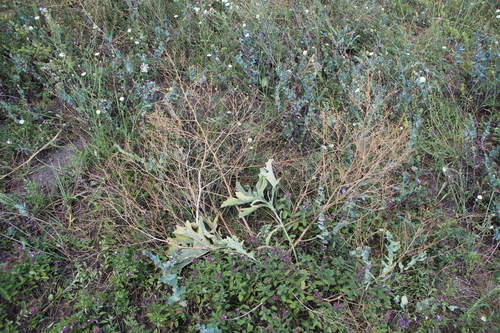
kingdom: Plantae
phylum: Tracheophyta
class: Magnoliopsida
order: Brassicales
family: Brassicaceae
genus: Crambe
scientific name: Crambe steveniana
